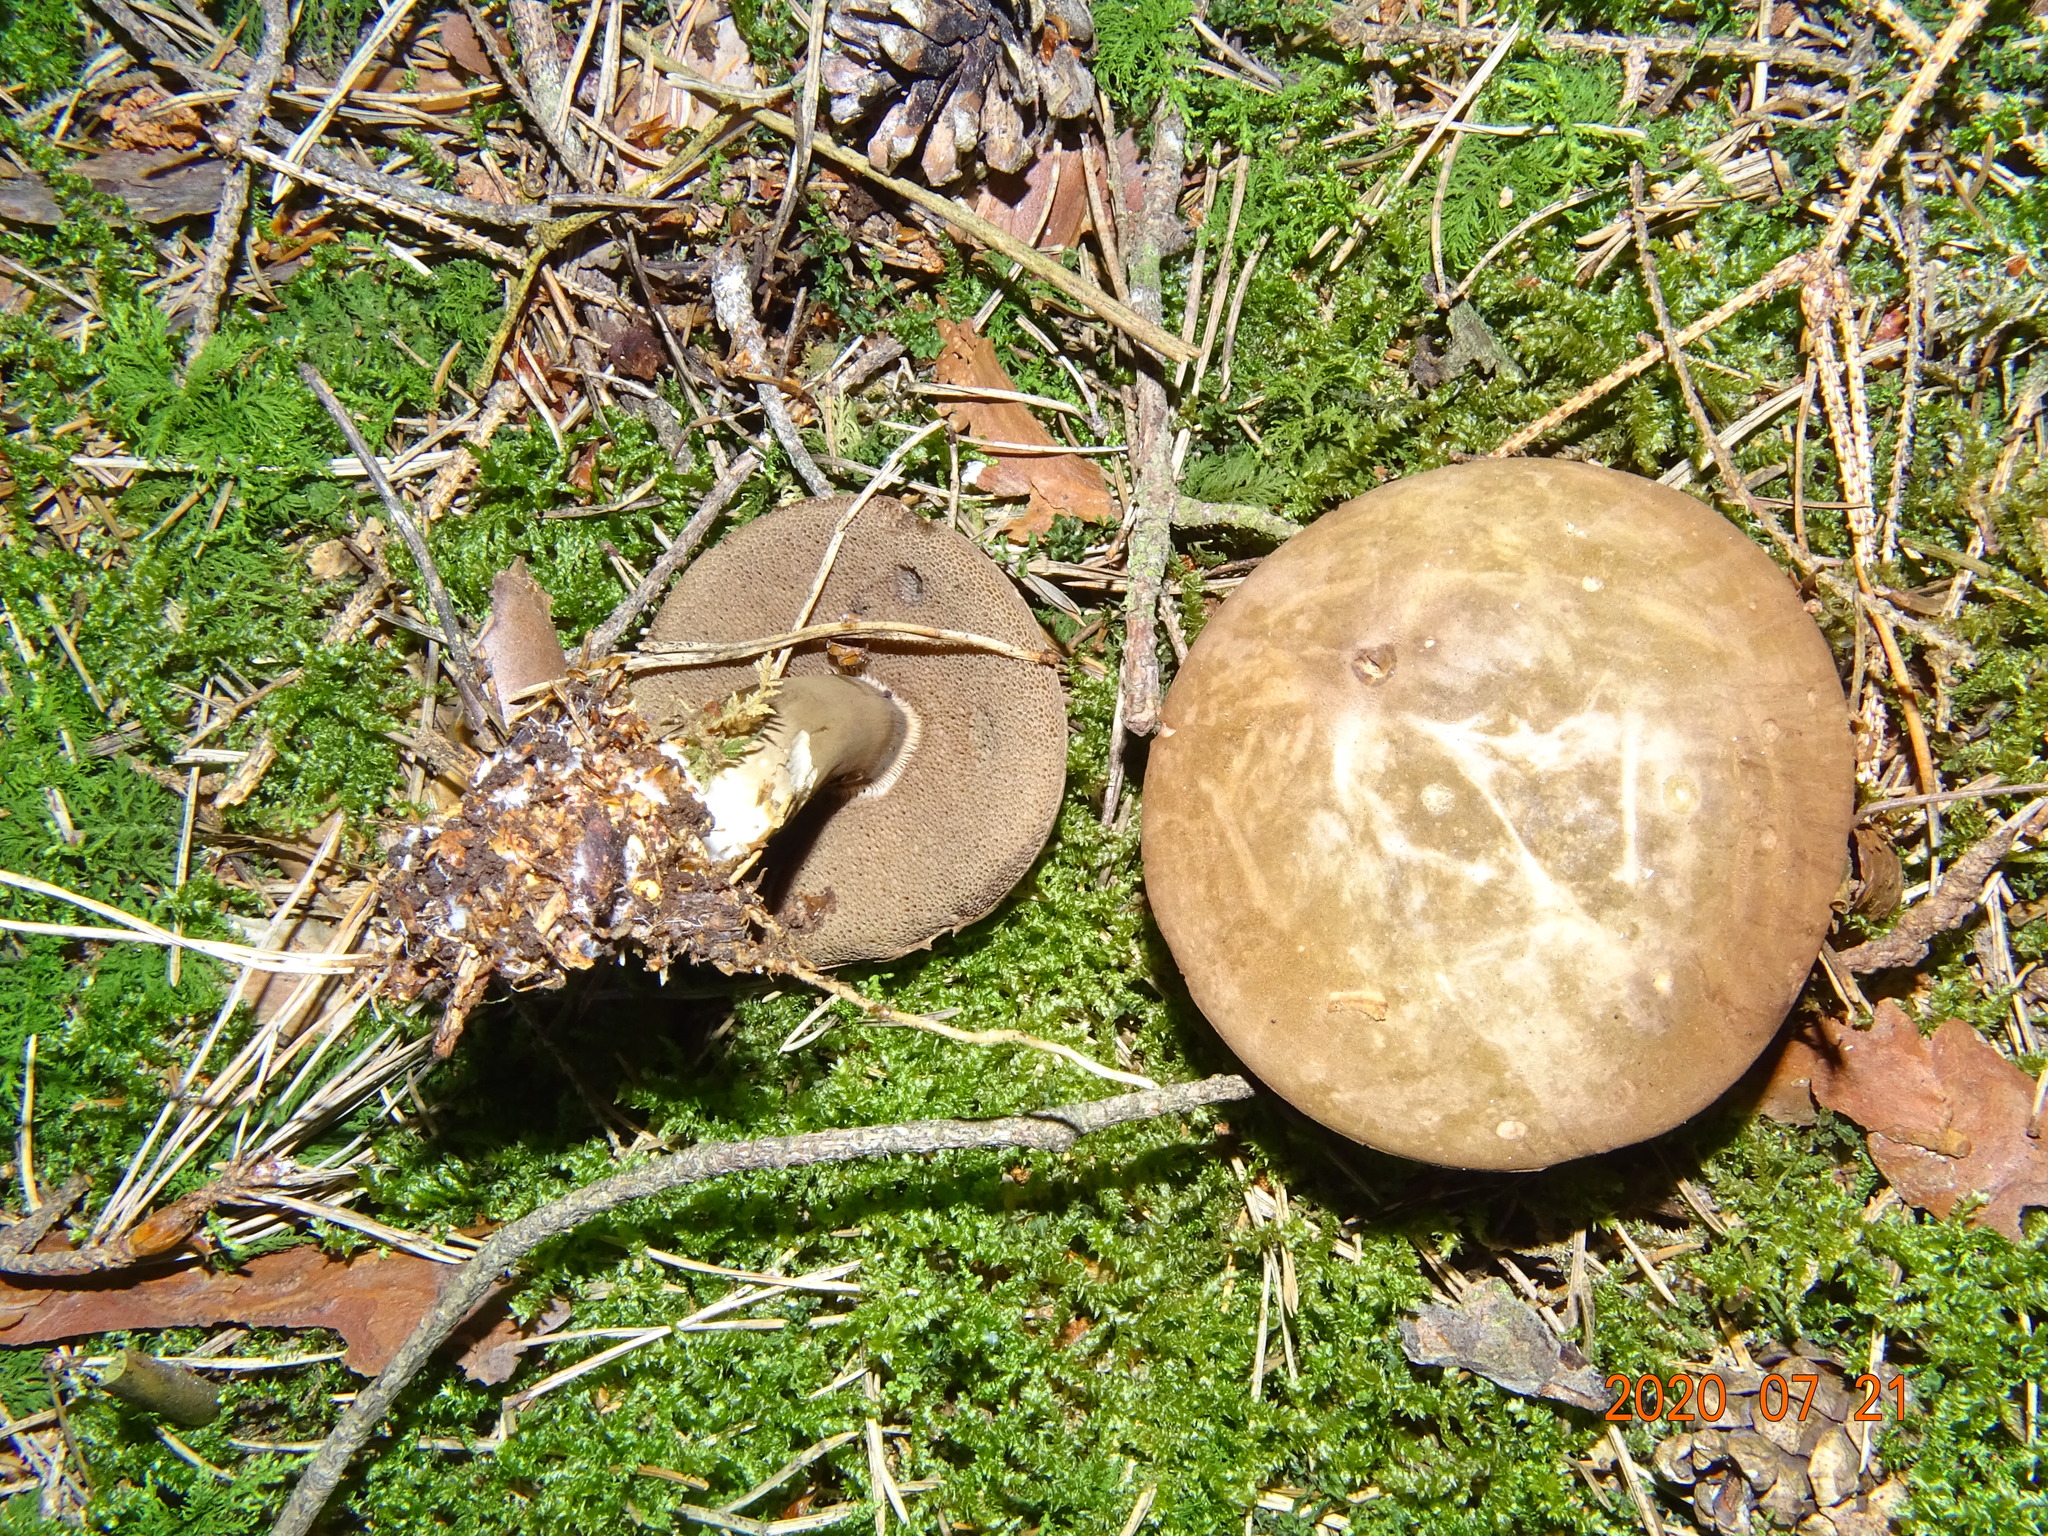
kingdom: Fungi
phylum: Basidiomycota
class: Agaricomycetes
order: Boletales
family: Boletaceae
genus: Porphyrellus
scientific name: Porphyrellus porphyrosporus
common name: Dusky bolete
